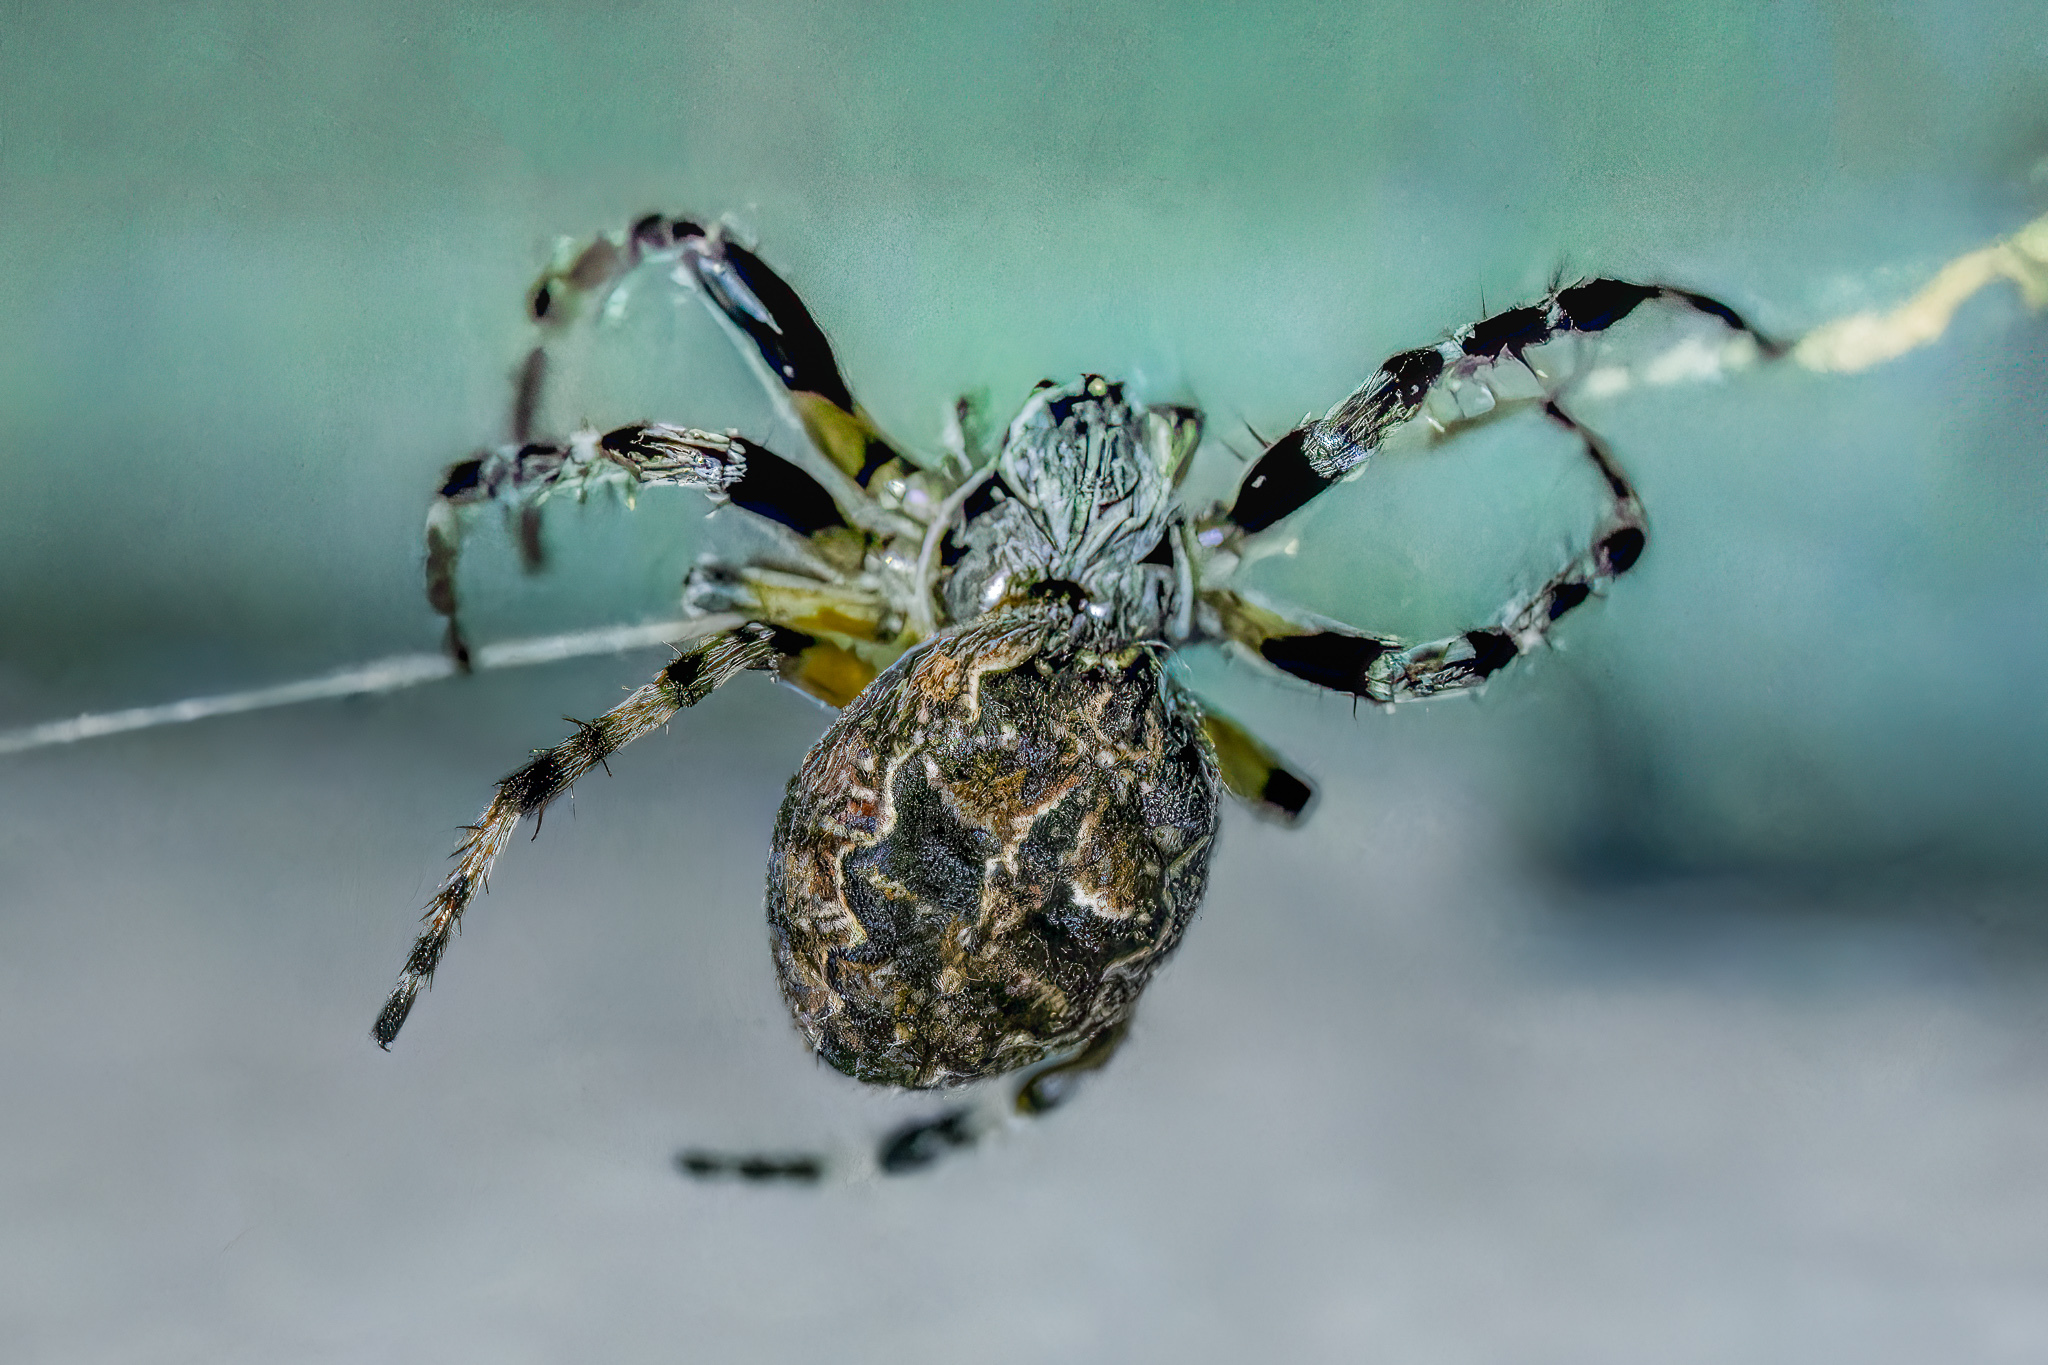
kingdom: Animalia
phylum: Arthropoda
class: Arachnida
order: Araneae
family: Araneidae
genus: Larinioides
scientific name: Larinioides sclopetarius
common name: Bridge orbweaver
